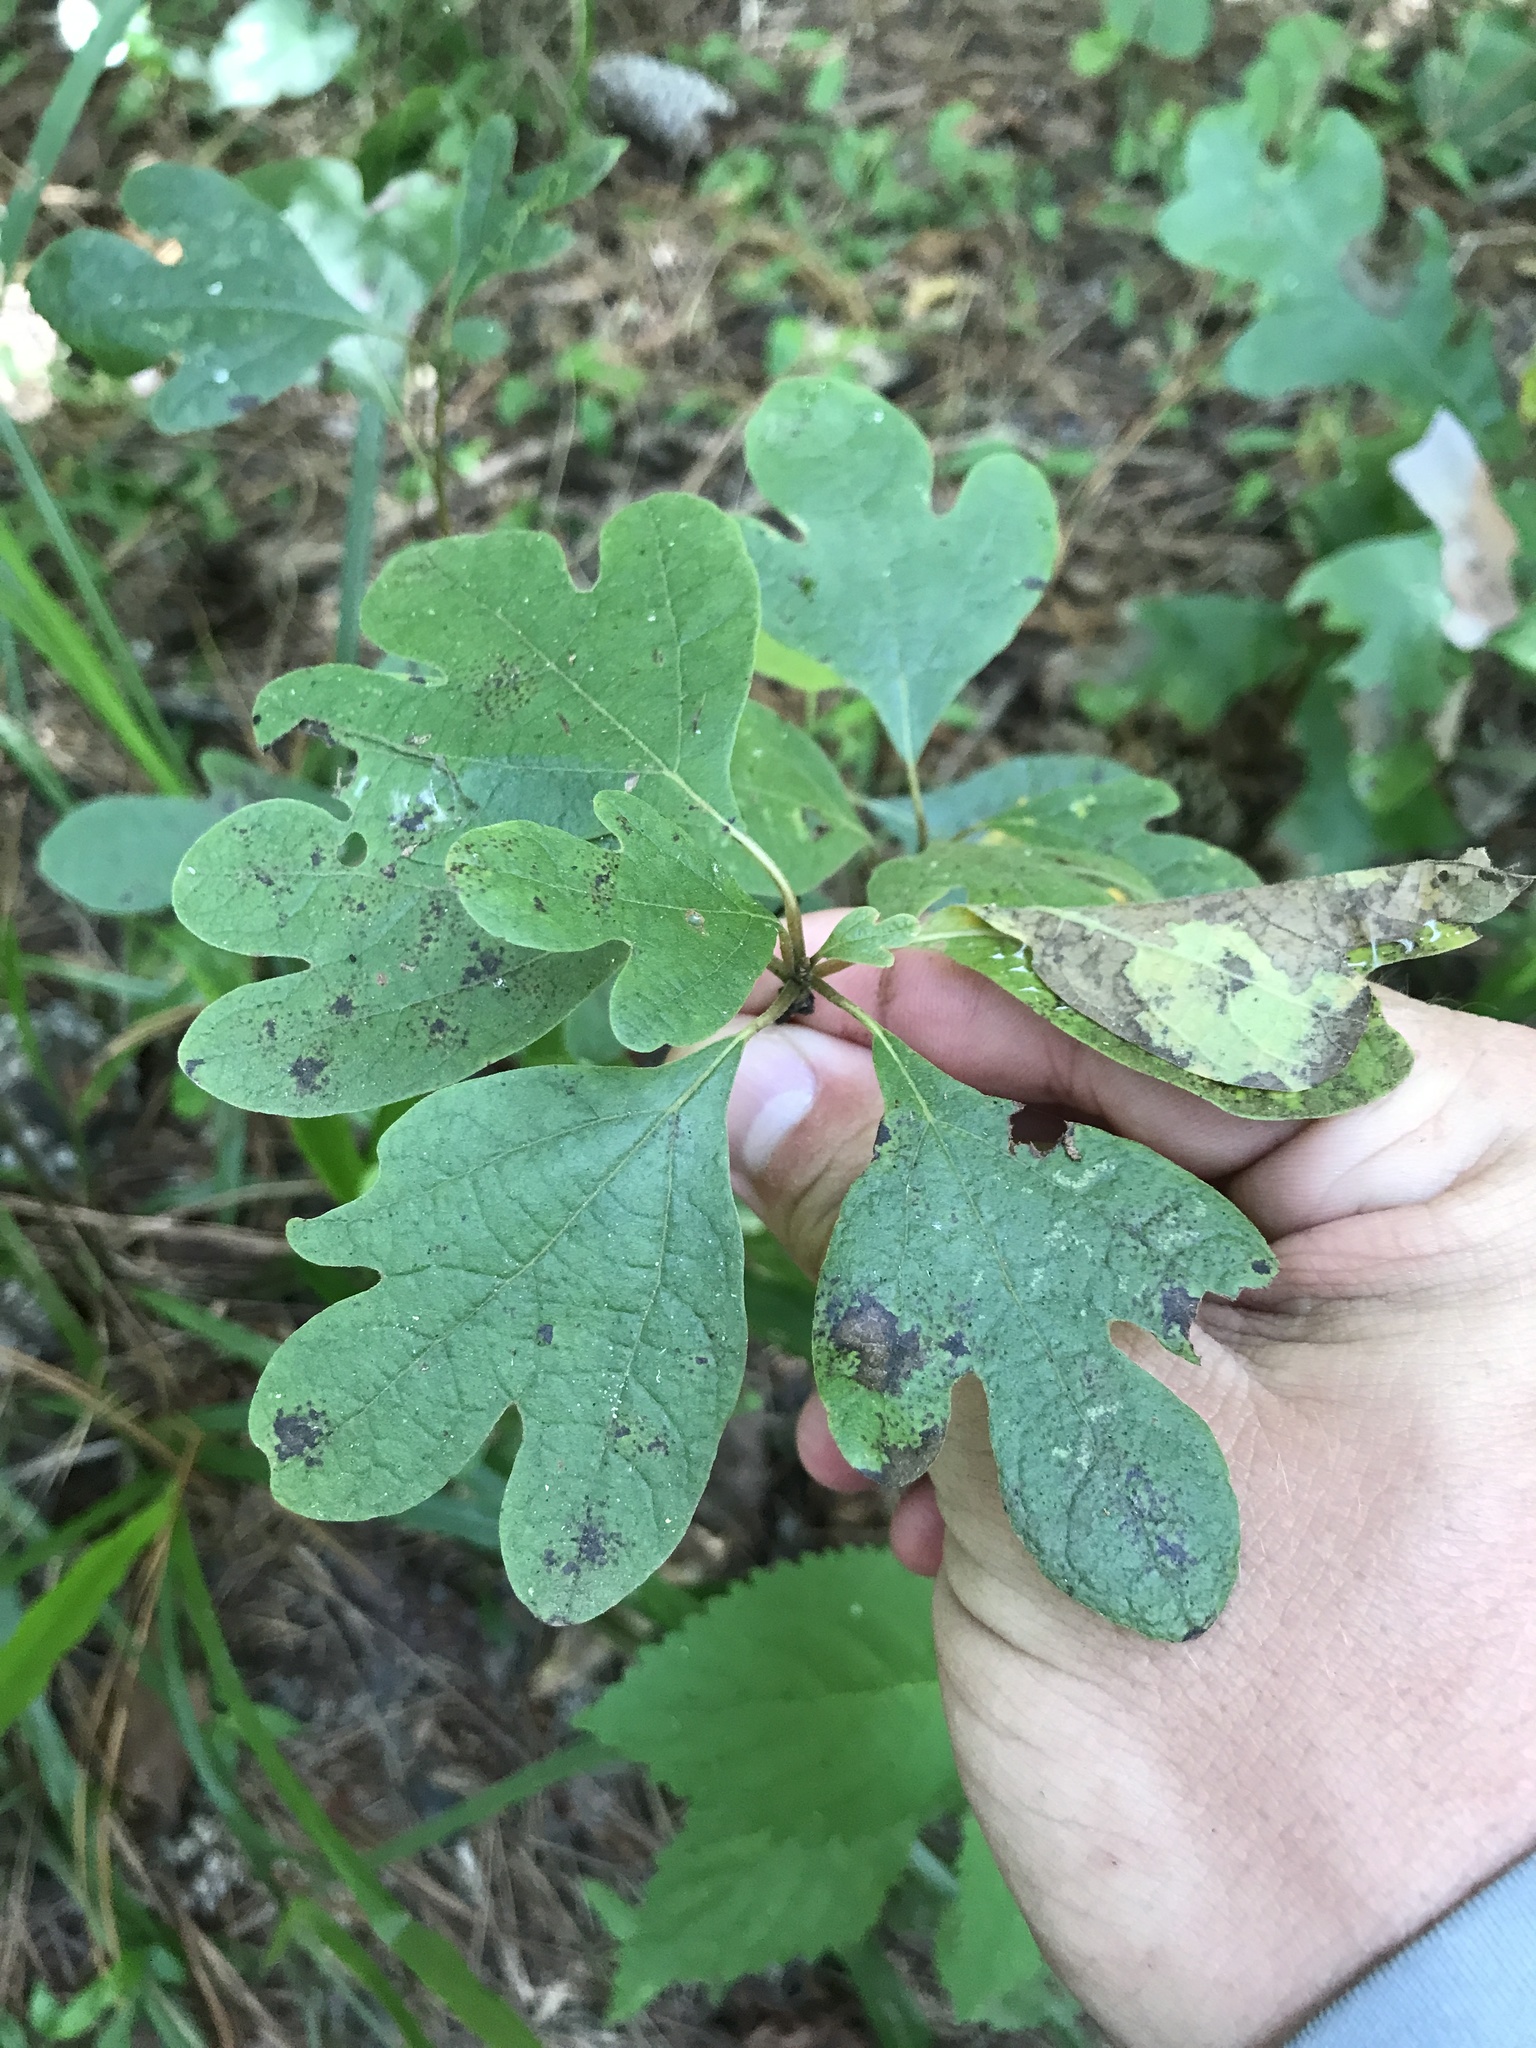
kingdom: Plantae
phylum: Tracheophyta
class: Magnoliopsida
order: Laurales
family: Lauraceae
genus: Sassafras
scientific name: Sassafras albidum
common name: Sassafras
